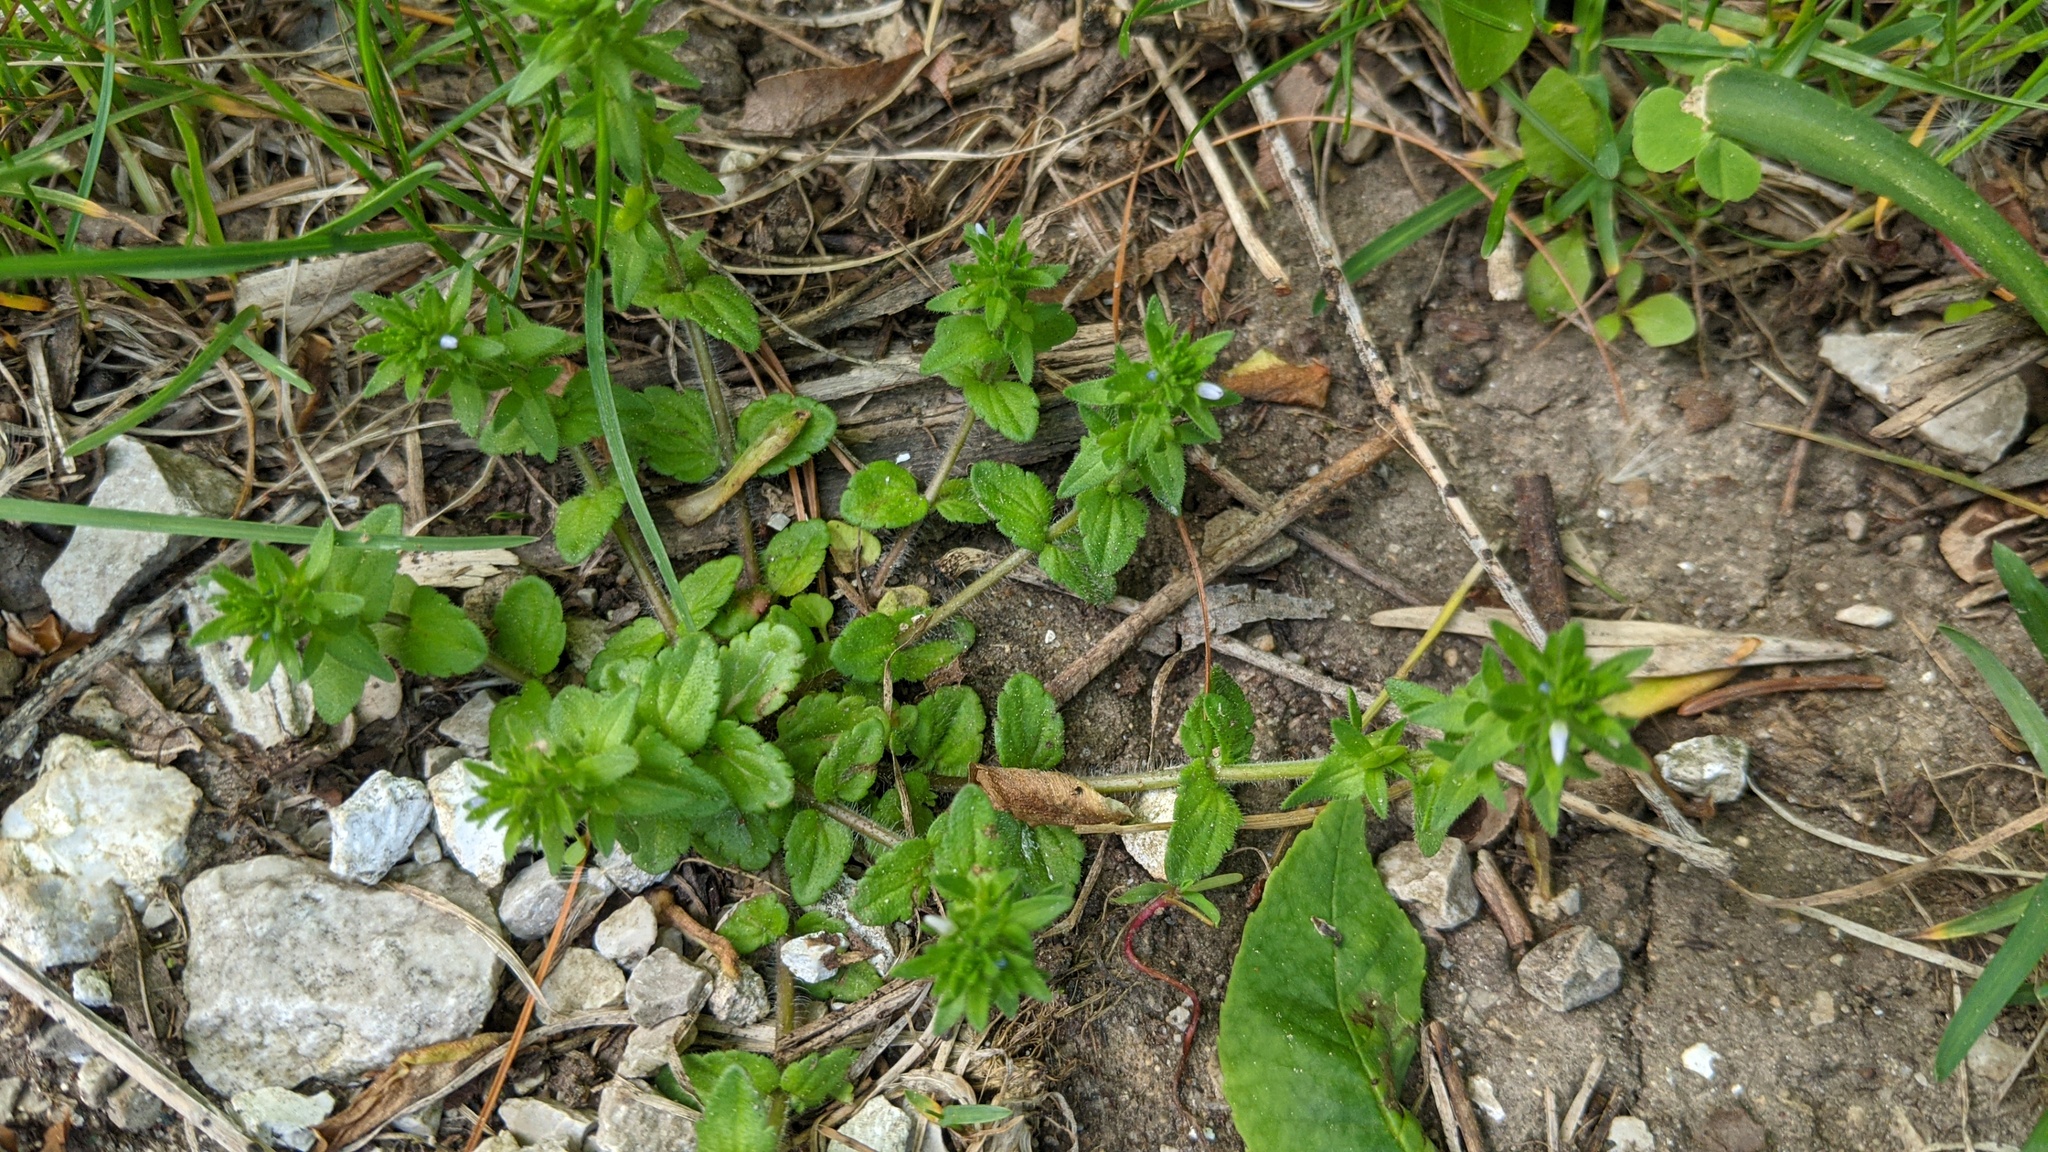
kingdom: Plantae
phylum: Tracheophyta
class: Magnoliopsida
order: Lamiales
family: Plantaginaceae
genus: Veronica
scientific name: Veronica arvensis
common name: Corn speedwell
